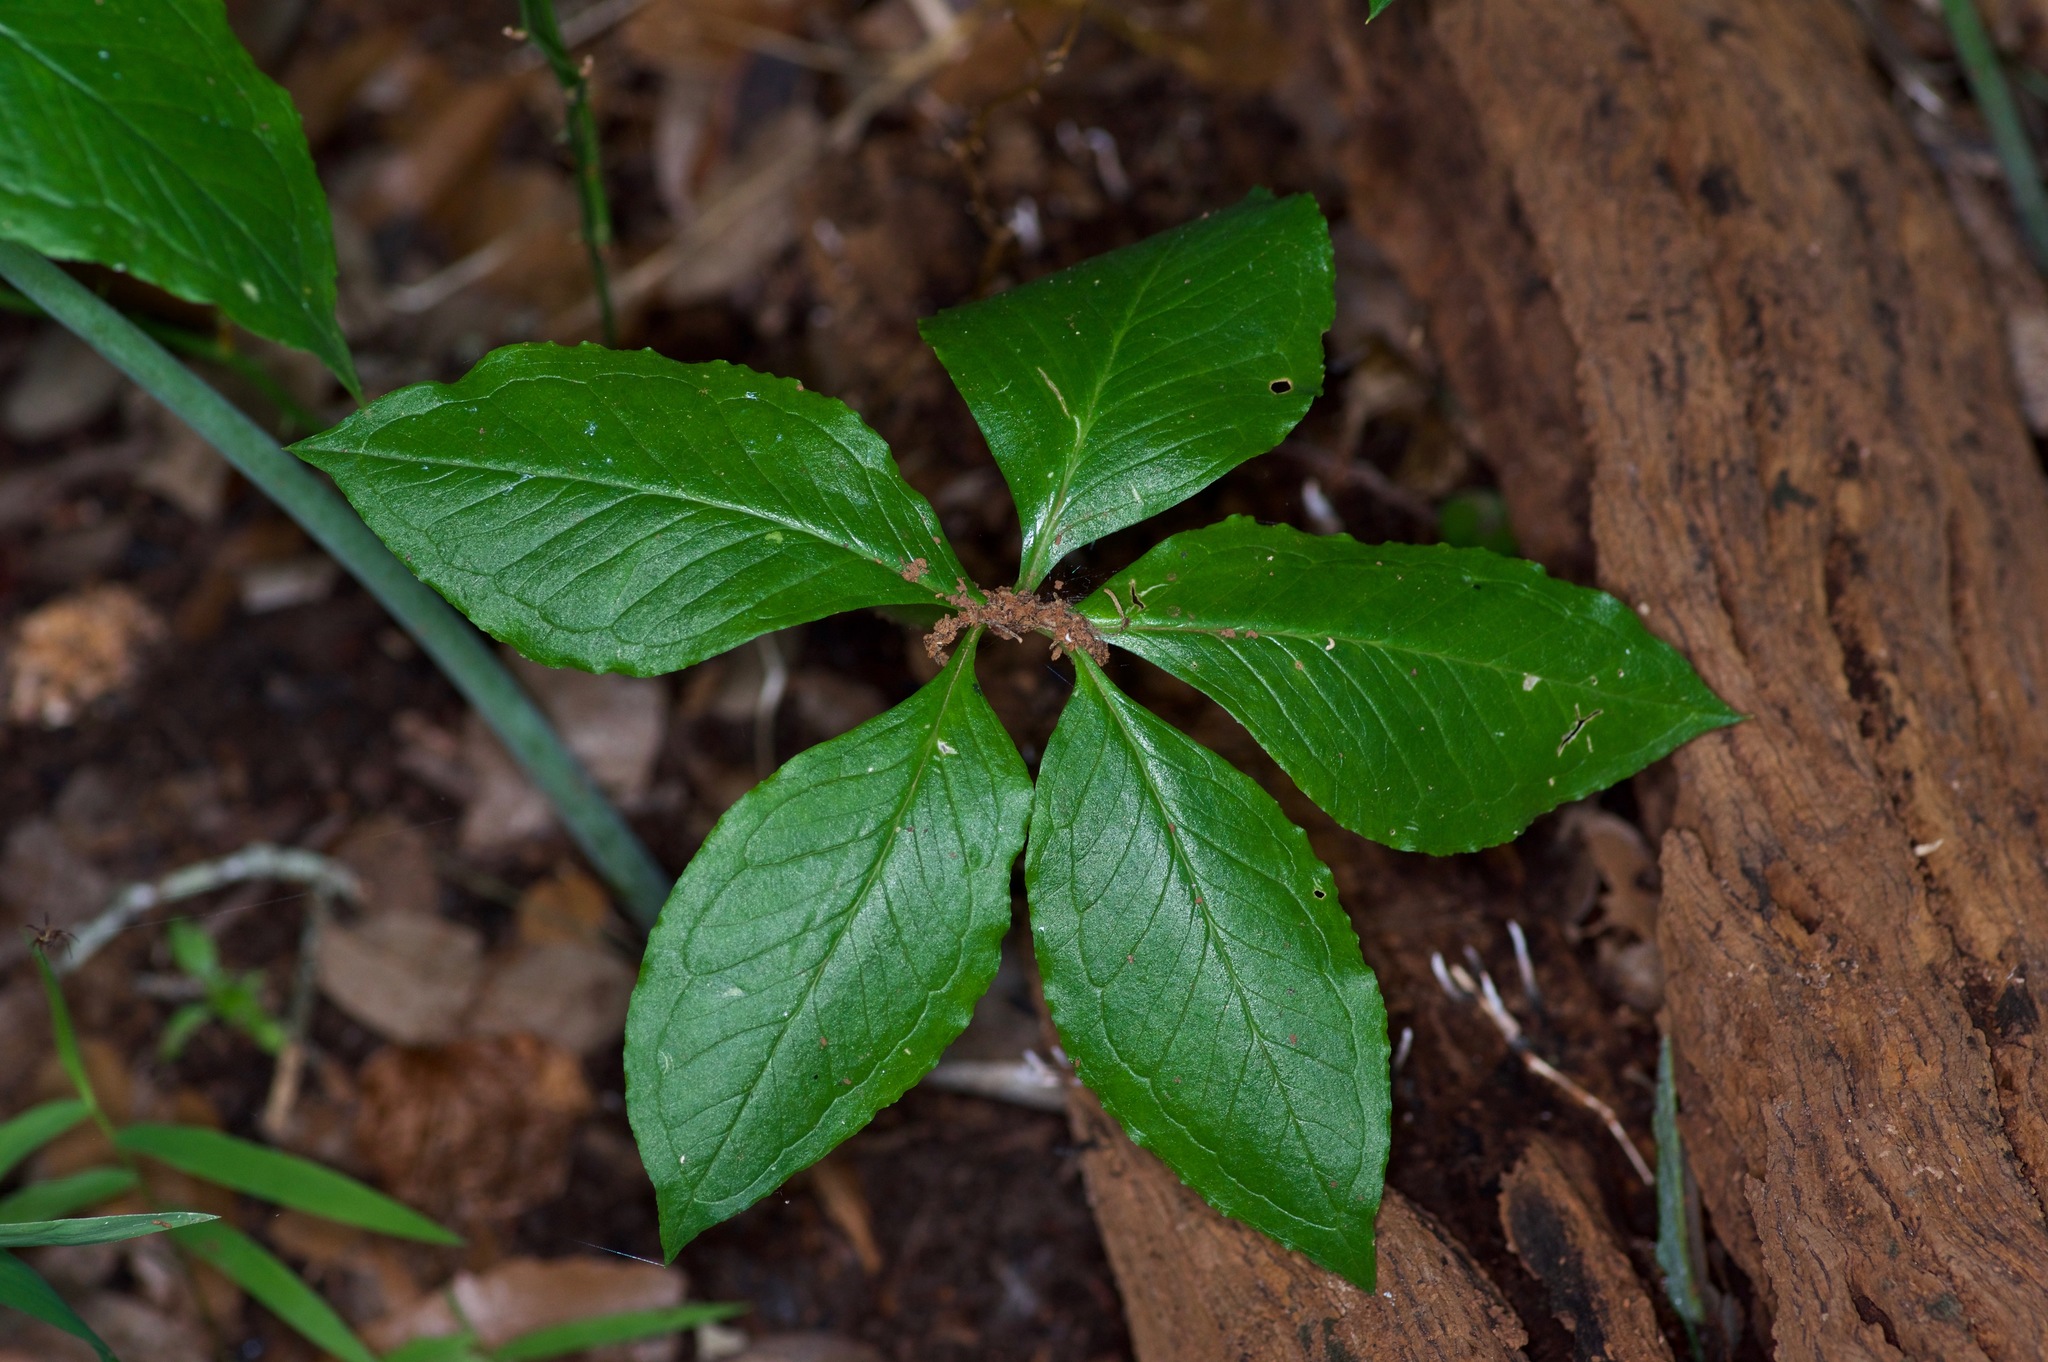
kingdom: Plantae
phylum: Tracheophyta
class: Liliopsida
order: Alismatales
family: Araceae
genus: Arisaema
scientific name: Arisaema dracontium
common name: Dragon-arum
